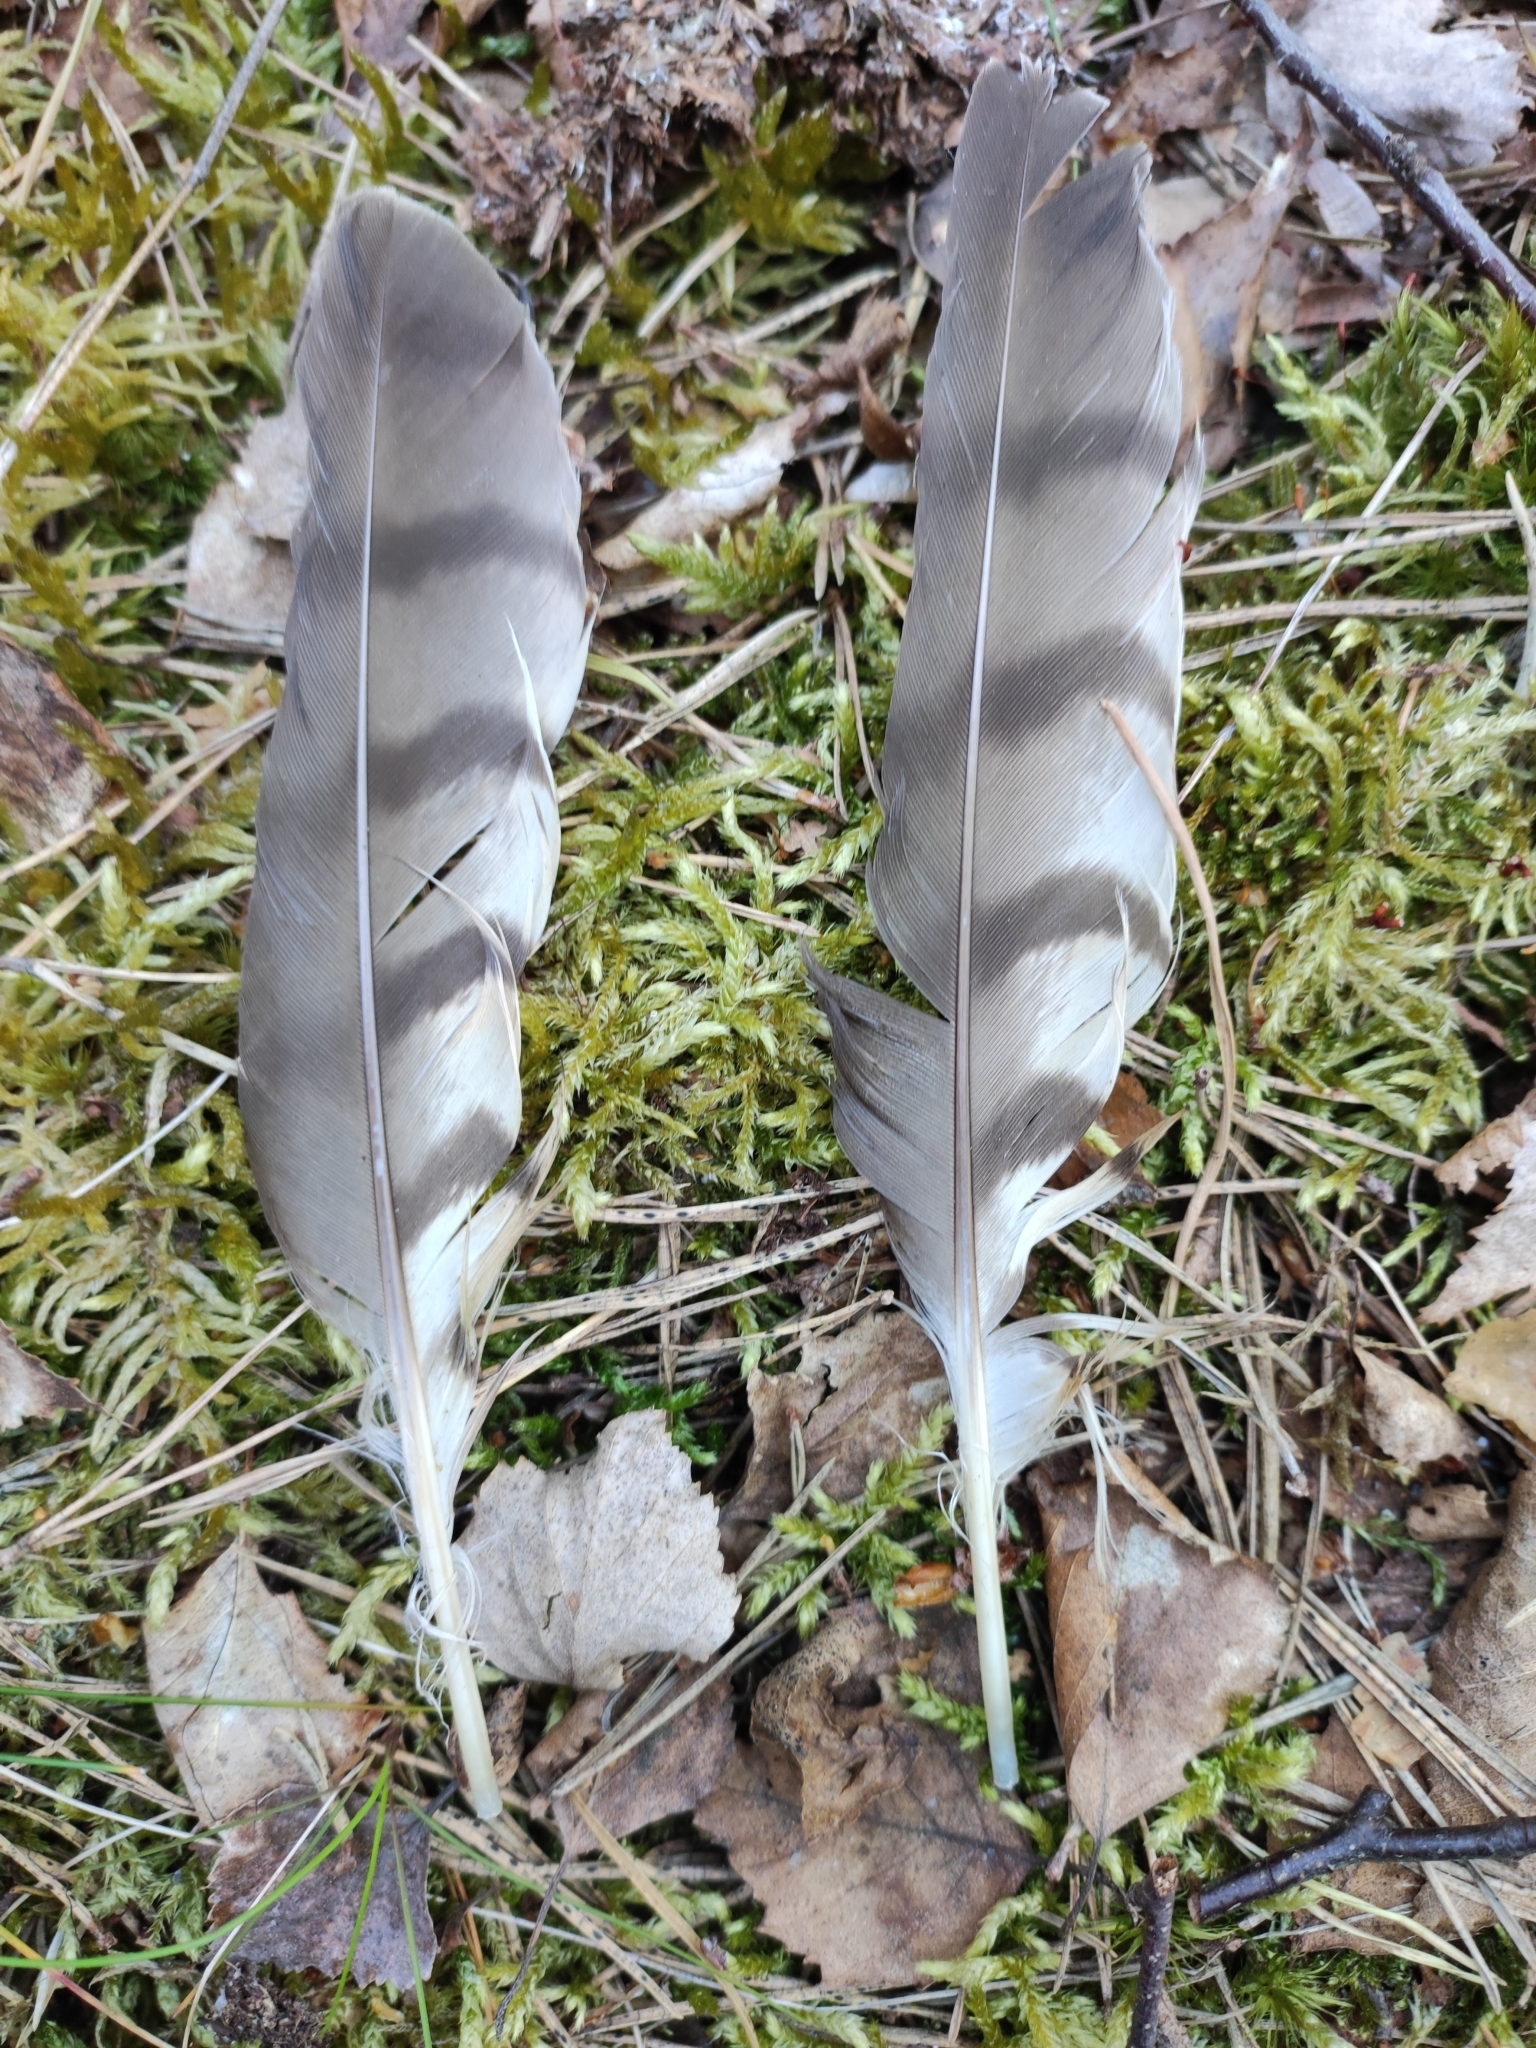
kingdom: Animalia
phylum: Chordata
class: Aves
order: Accipitriformes
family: Accipitridae
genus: Accipiter
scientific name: Accipiter nisus
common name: Eurasian sparrowhawk
